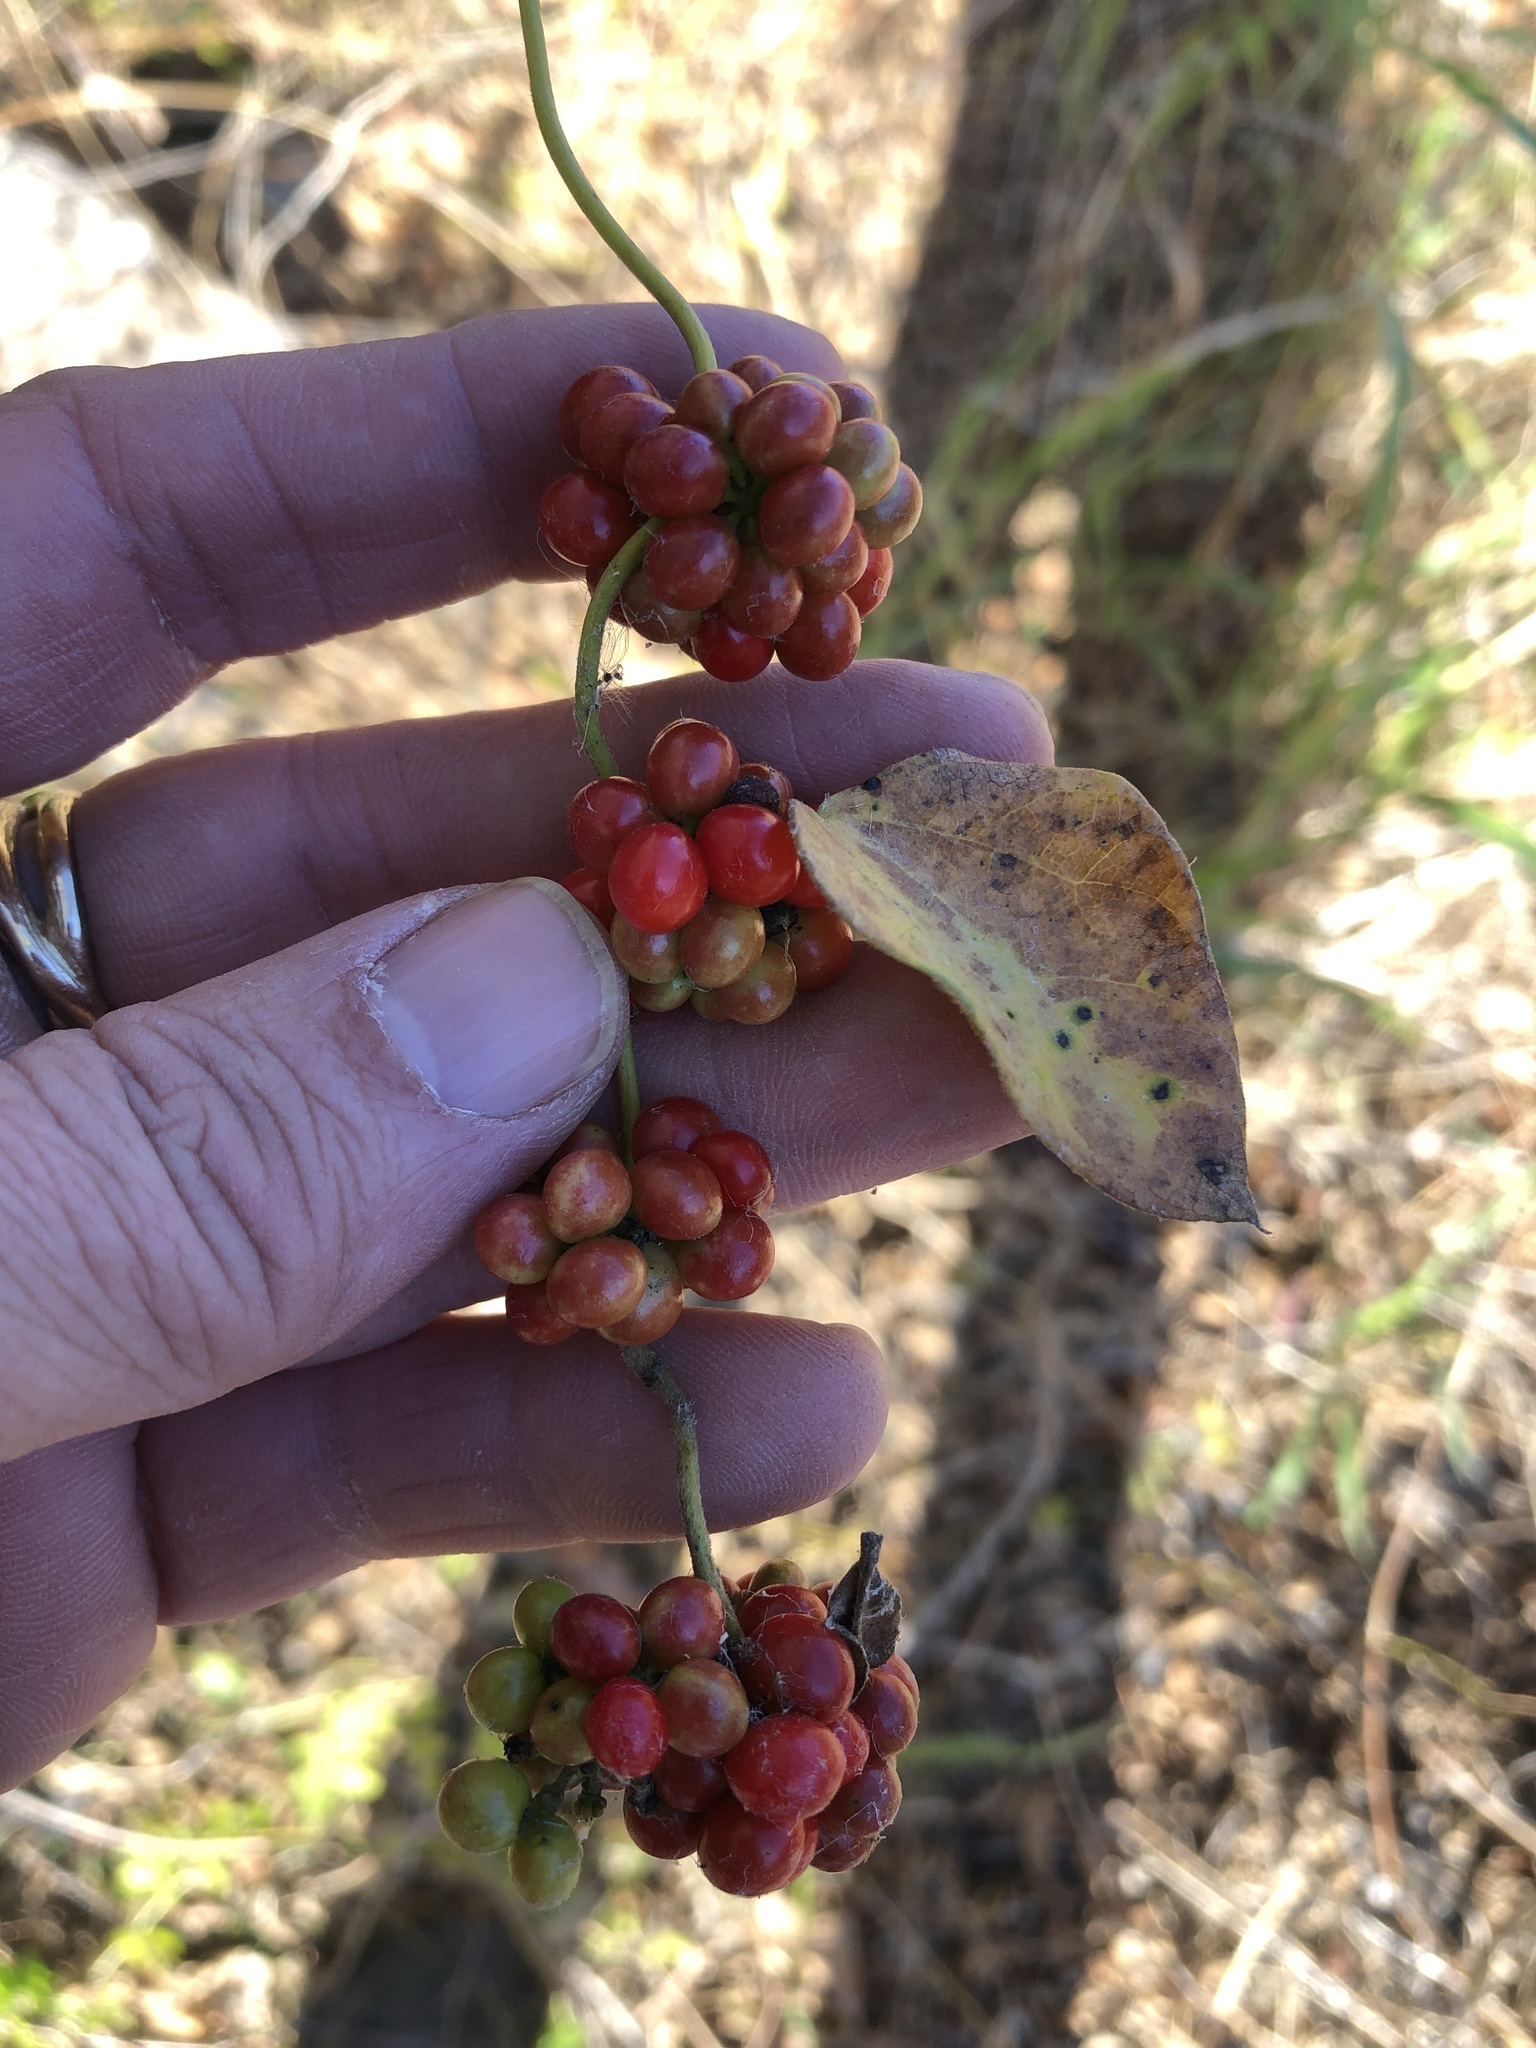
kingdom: Plantae
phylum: Tracheophyta
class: Magnoliopsida
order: Ranunculales
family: Menispermaceae
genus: Cocculus
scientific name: Cocculus carolinus
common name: Carolina moonseed
